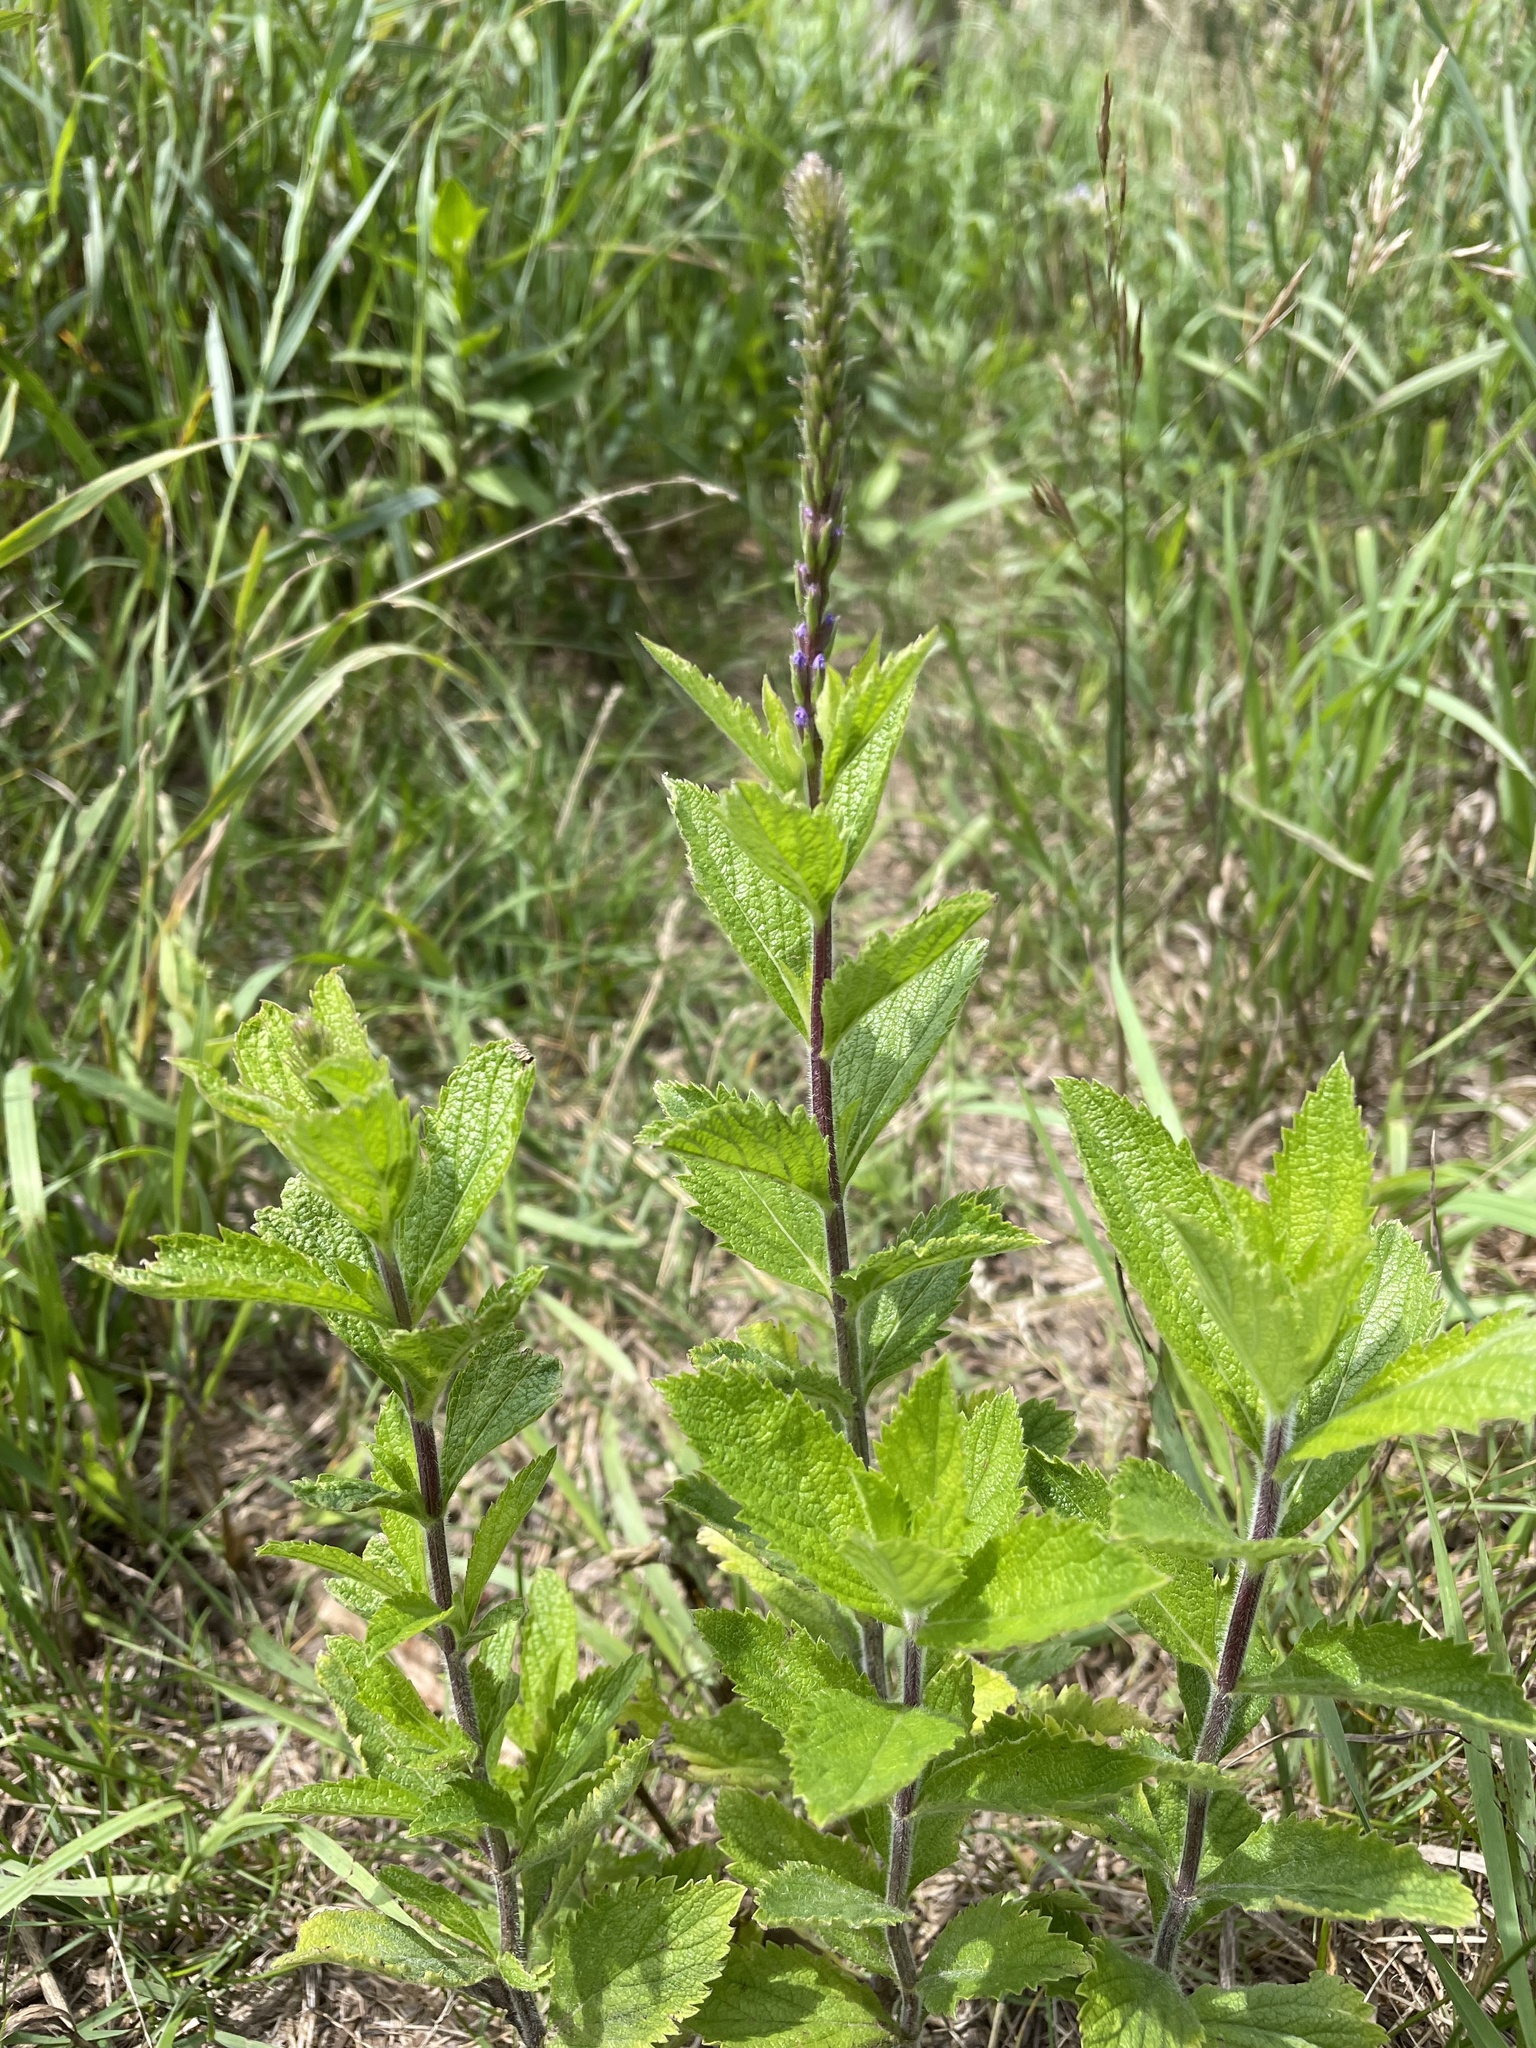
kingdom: Plantae
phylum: Tracheophyta
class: Magnoliopsida
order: Lamiales
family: Verbenaceae
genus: Verbena
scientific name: Verbena stricta
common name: Hoary vervain
